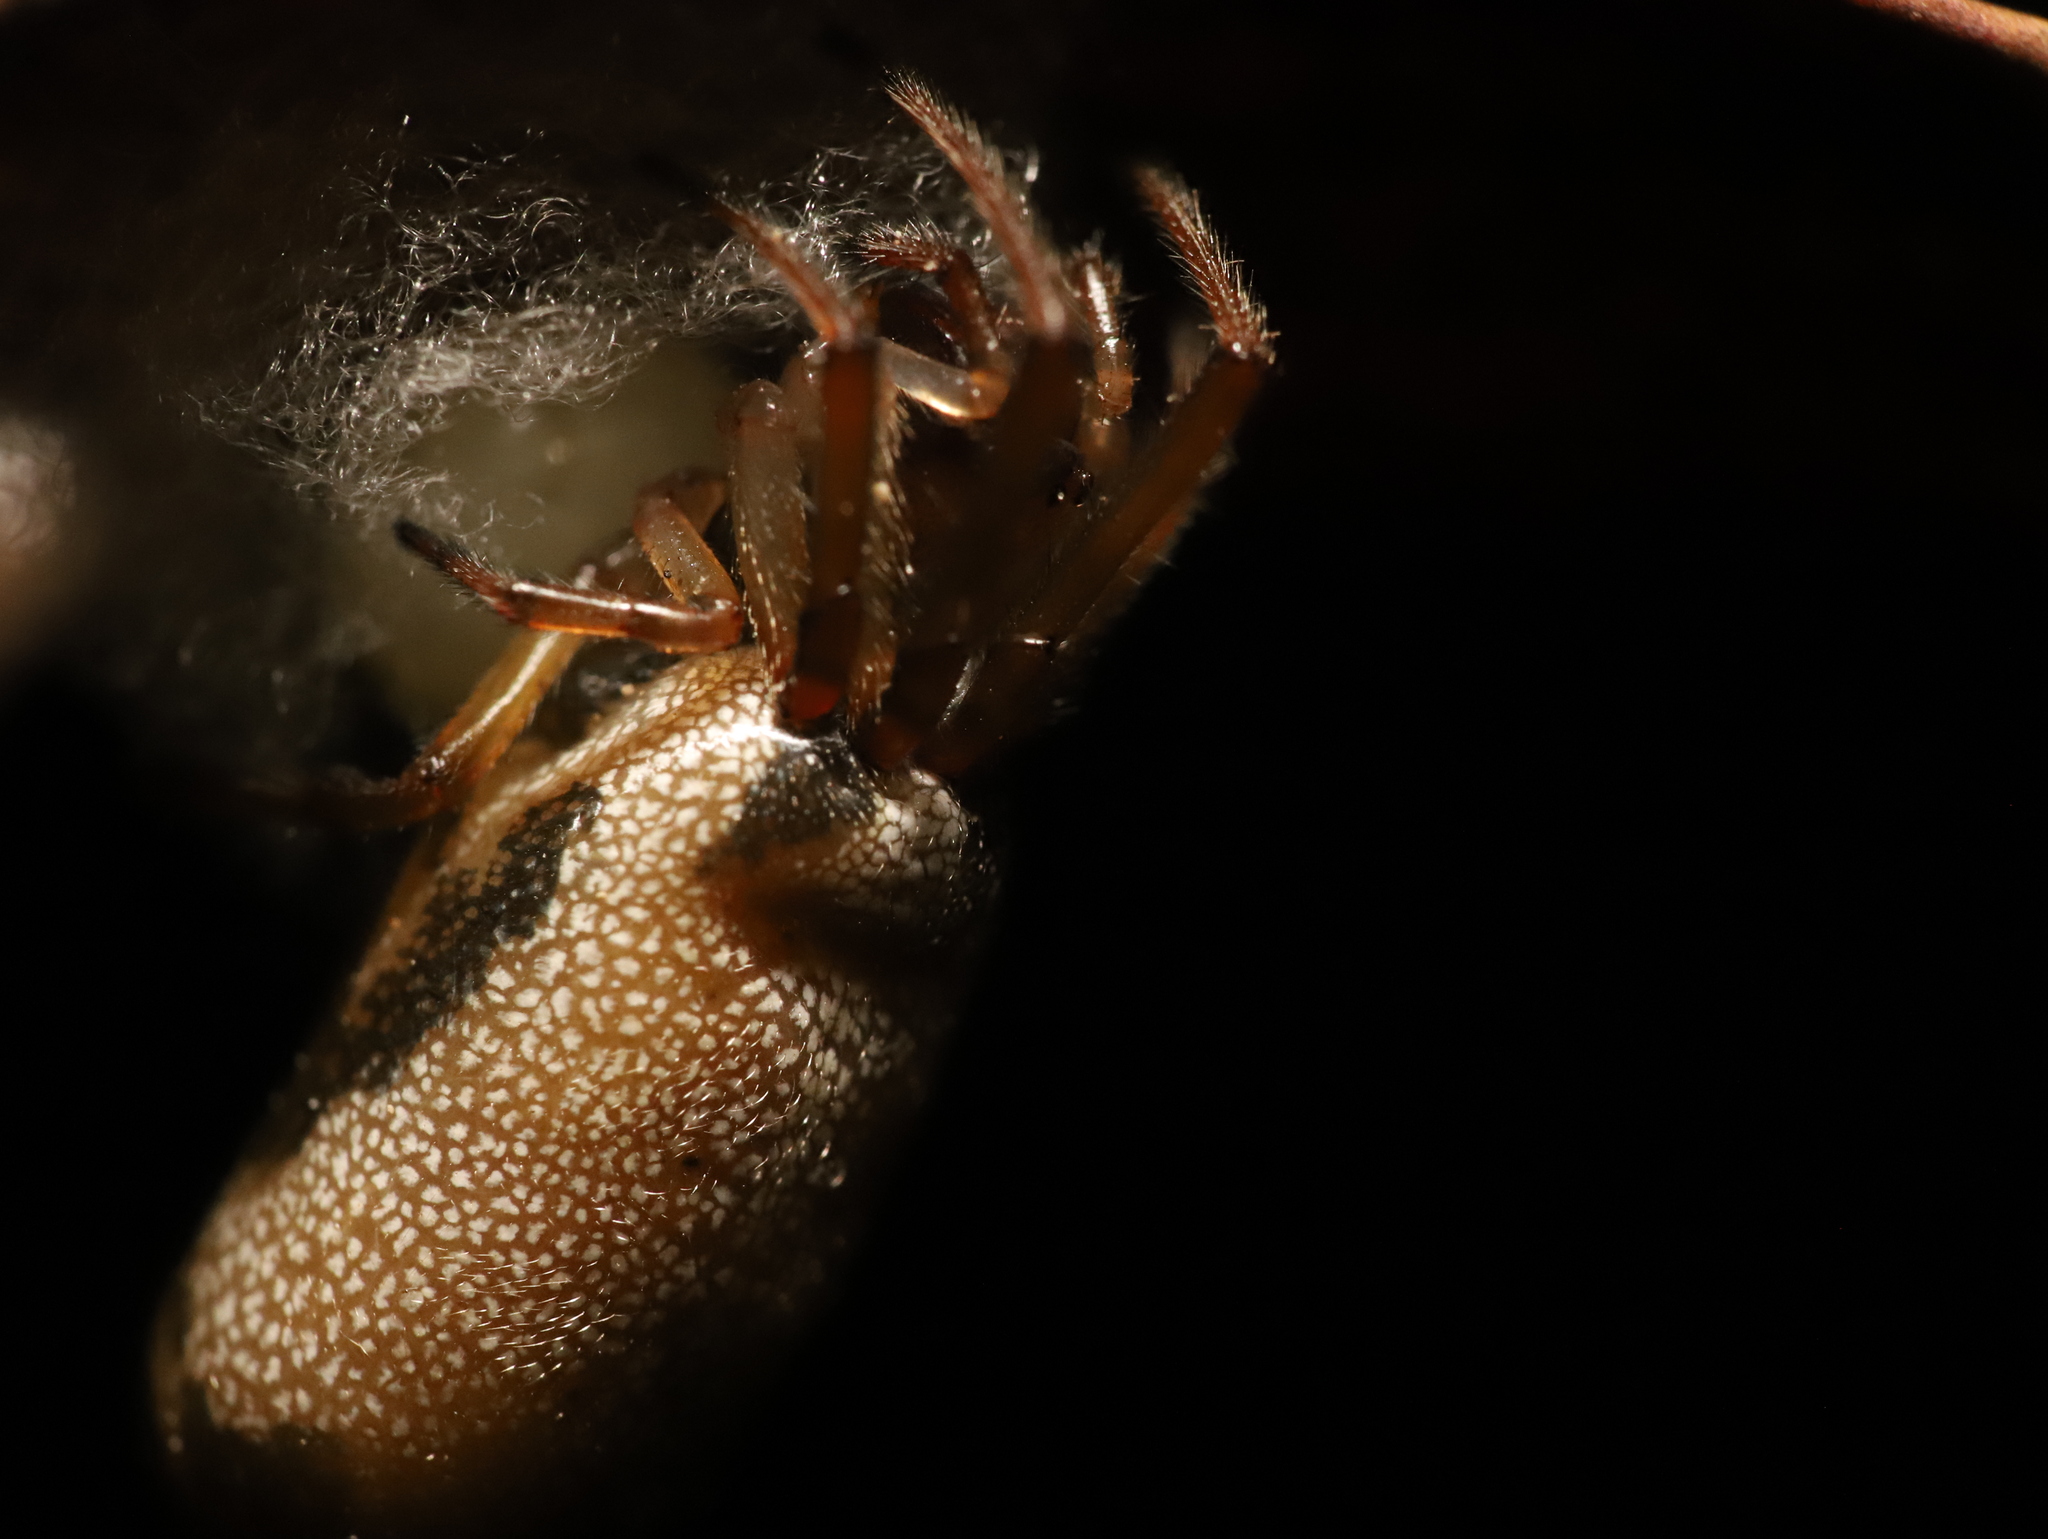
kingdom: Animalia
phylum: Arthropoda
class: Arachnida
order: Araneae
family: Araneidae
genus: Phonognatha
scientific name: Phonognatha melania
